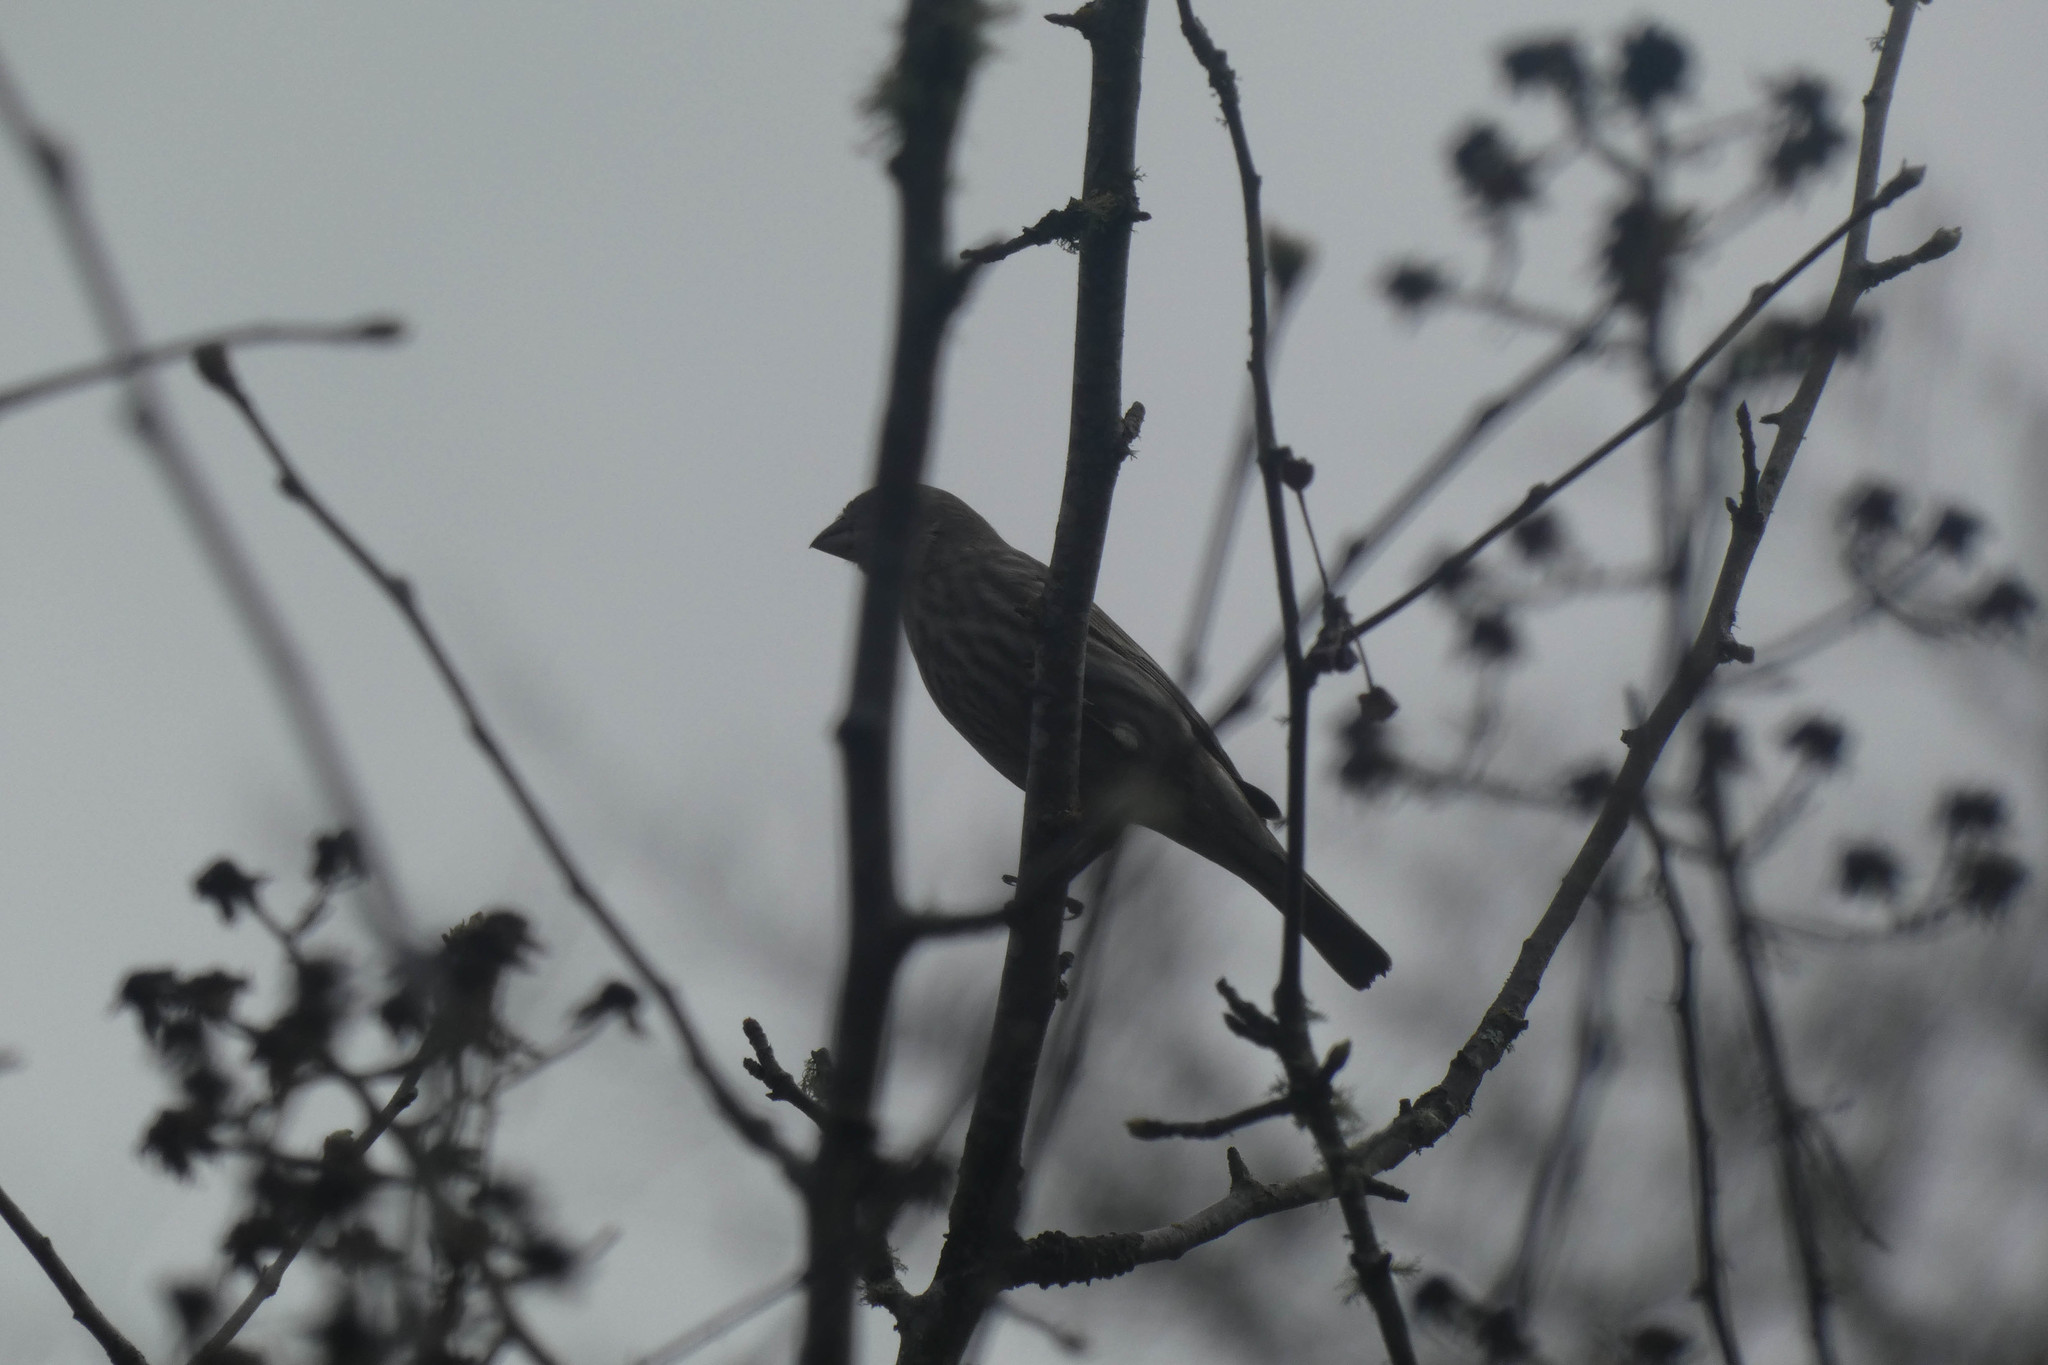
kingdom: Animalia
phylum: Chordata
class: Aves
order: Passeriformes
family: Fringillidae
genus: Haemorhous
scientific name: Haemorhous mexicanus
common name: House finch
